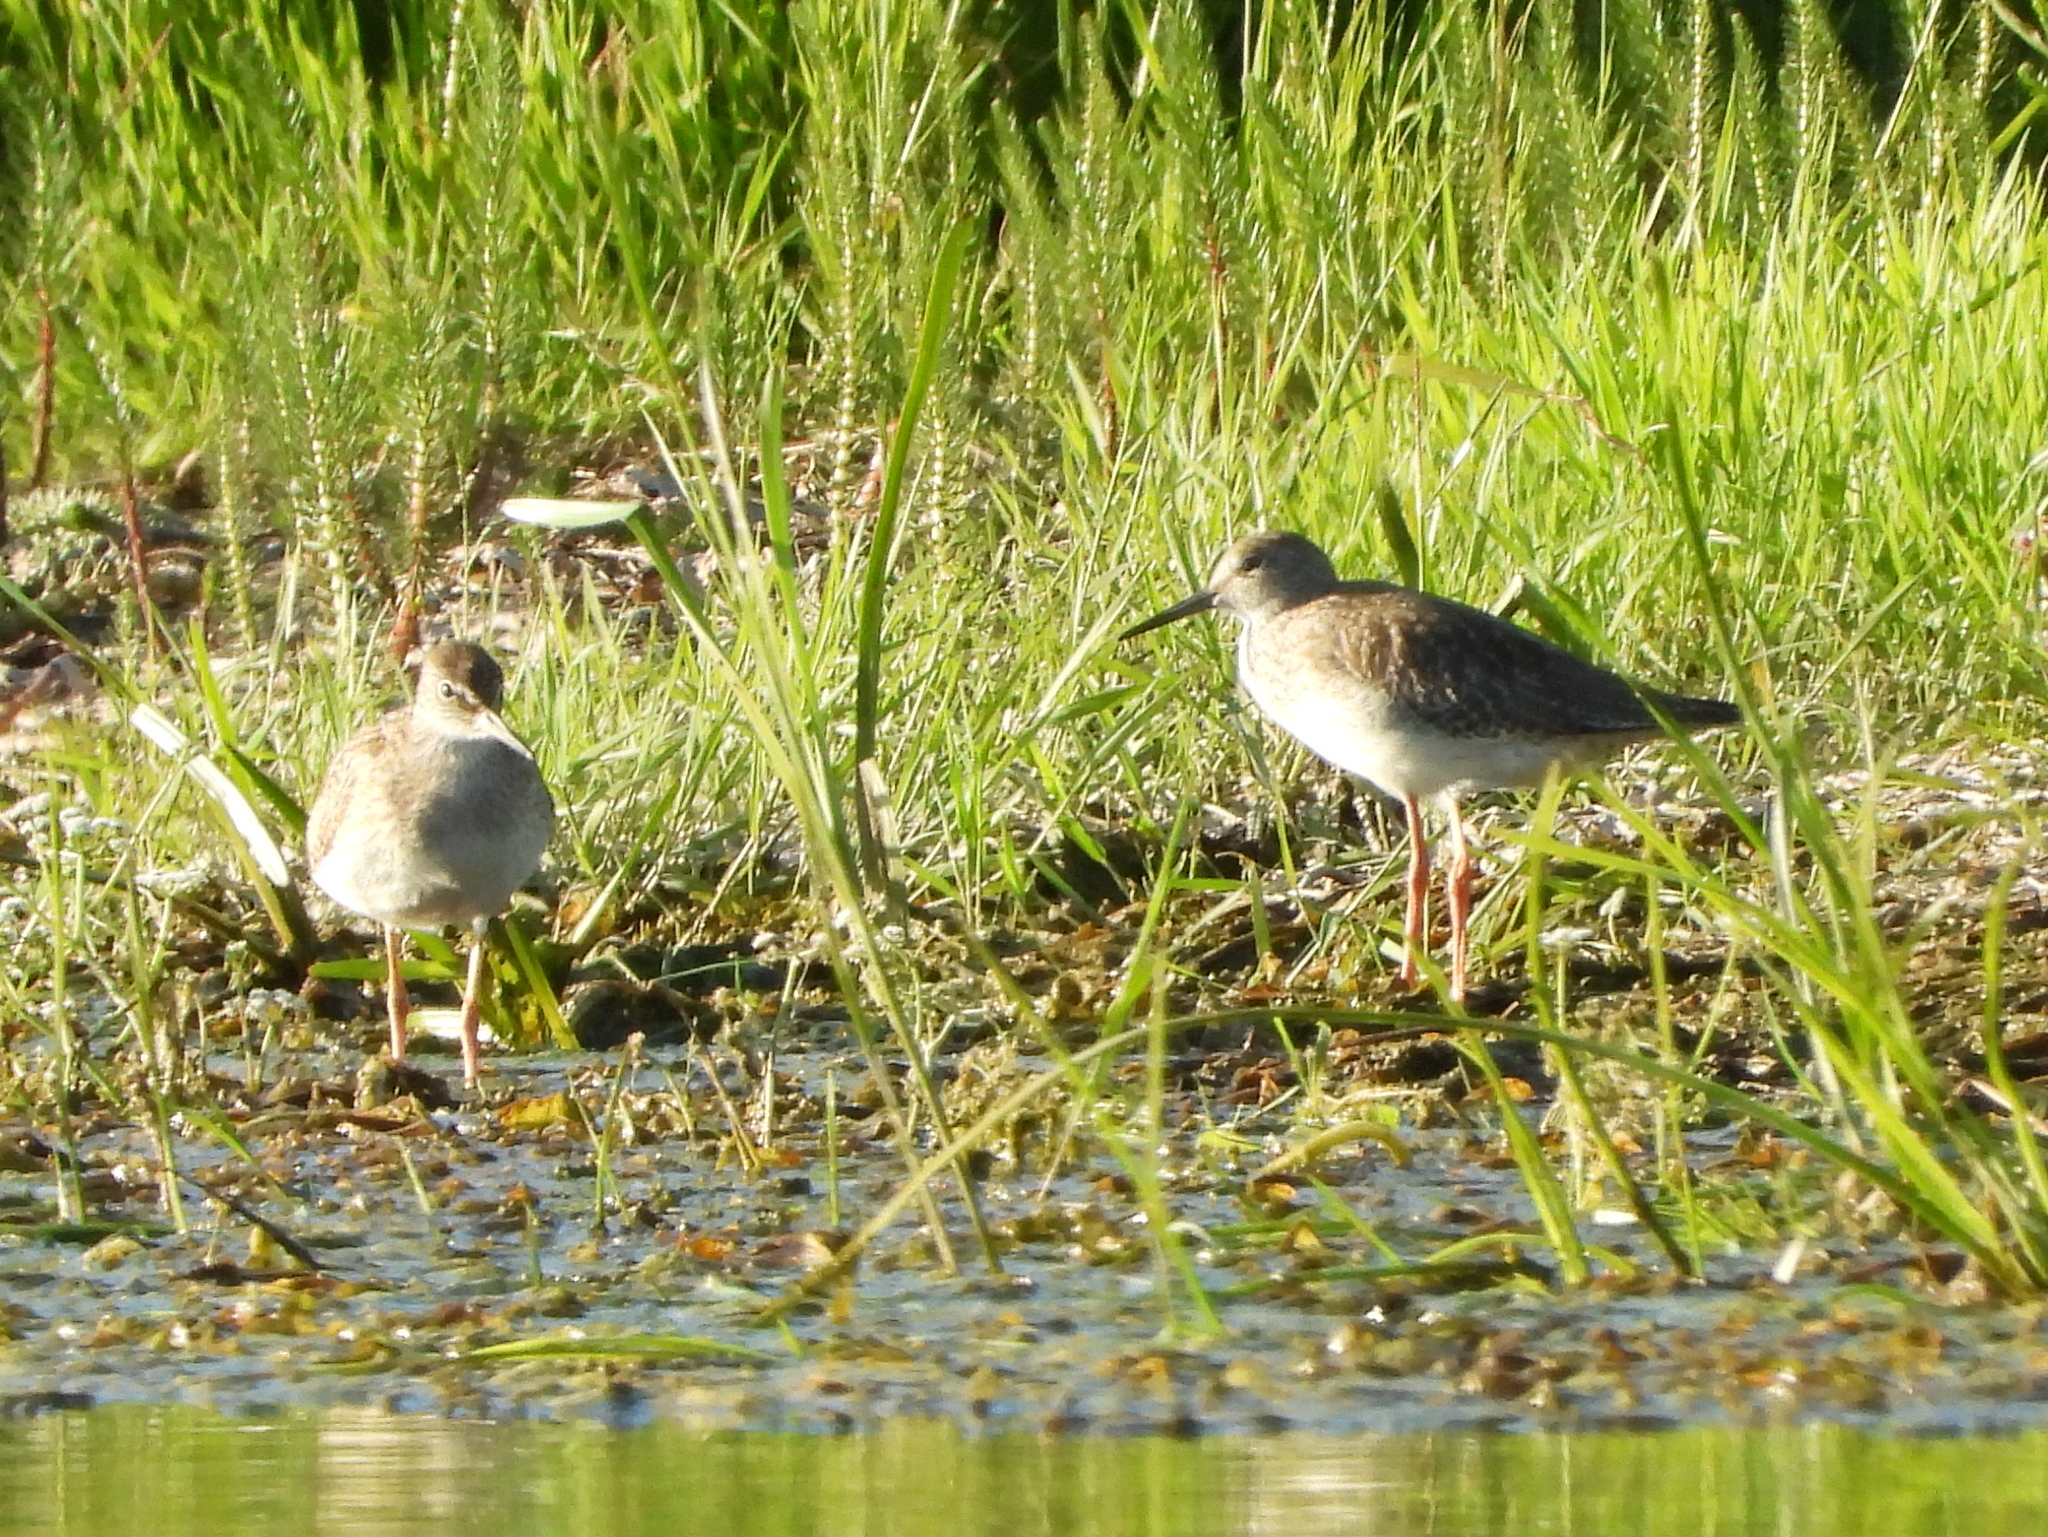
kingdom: Animalia
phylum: Chordata
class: Aves
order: Charadriiformes
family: Scolopacidae
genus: Tringa
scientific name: Tringa totanus
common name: Common redshank
